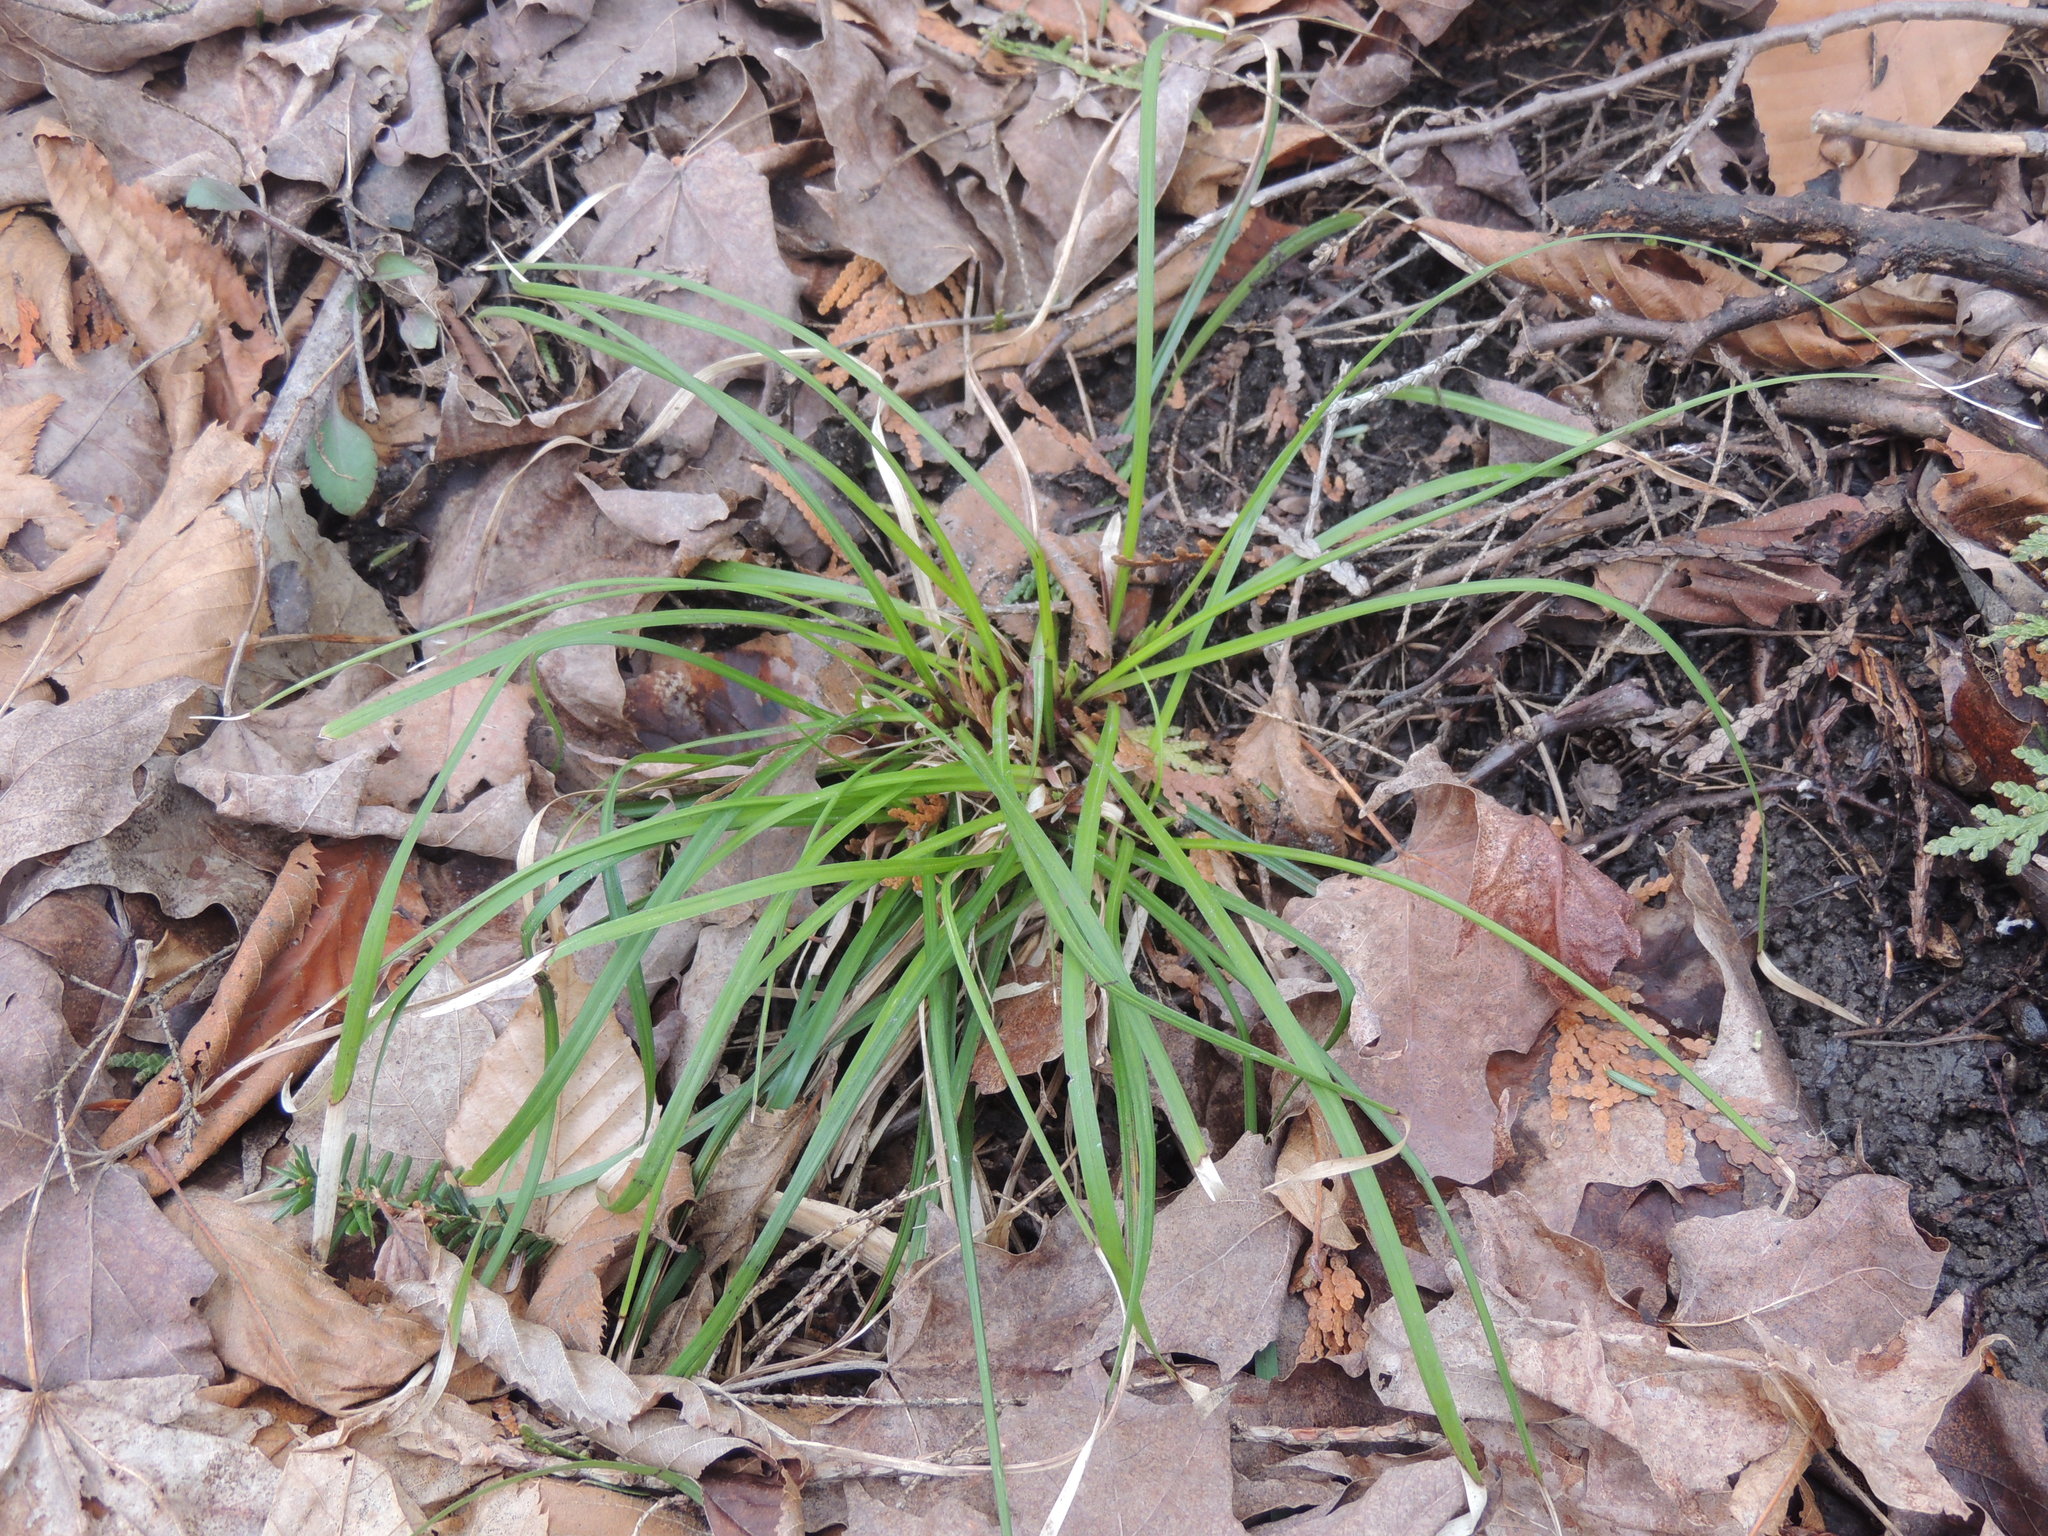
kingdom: Plantae
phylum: Tracheophyta
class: Liliopsida
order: Poales
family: Cyperaceae
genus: Carex
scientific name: Carex pedunculata
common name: Pedunculate sedge
